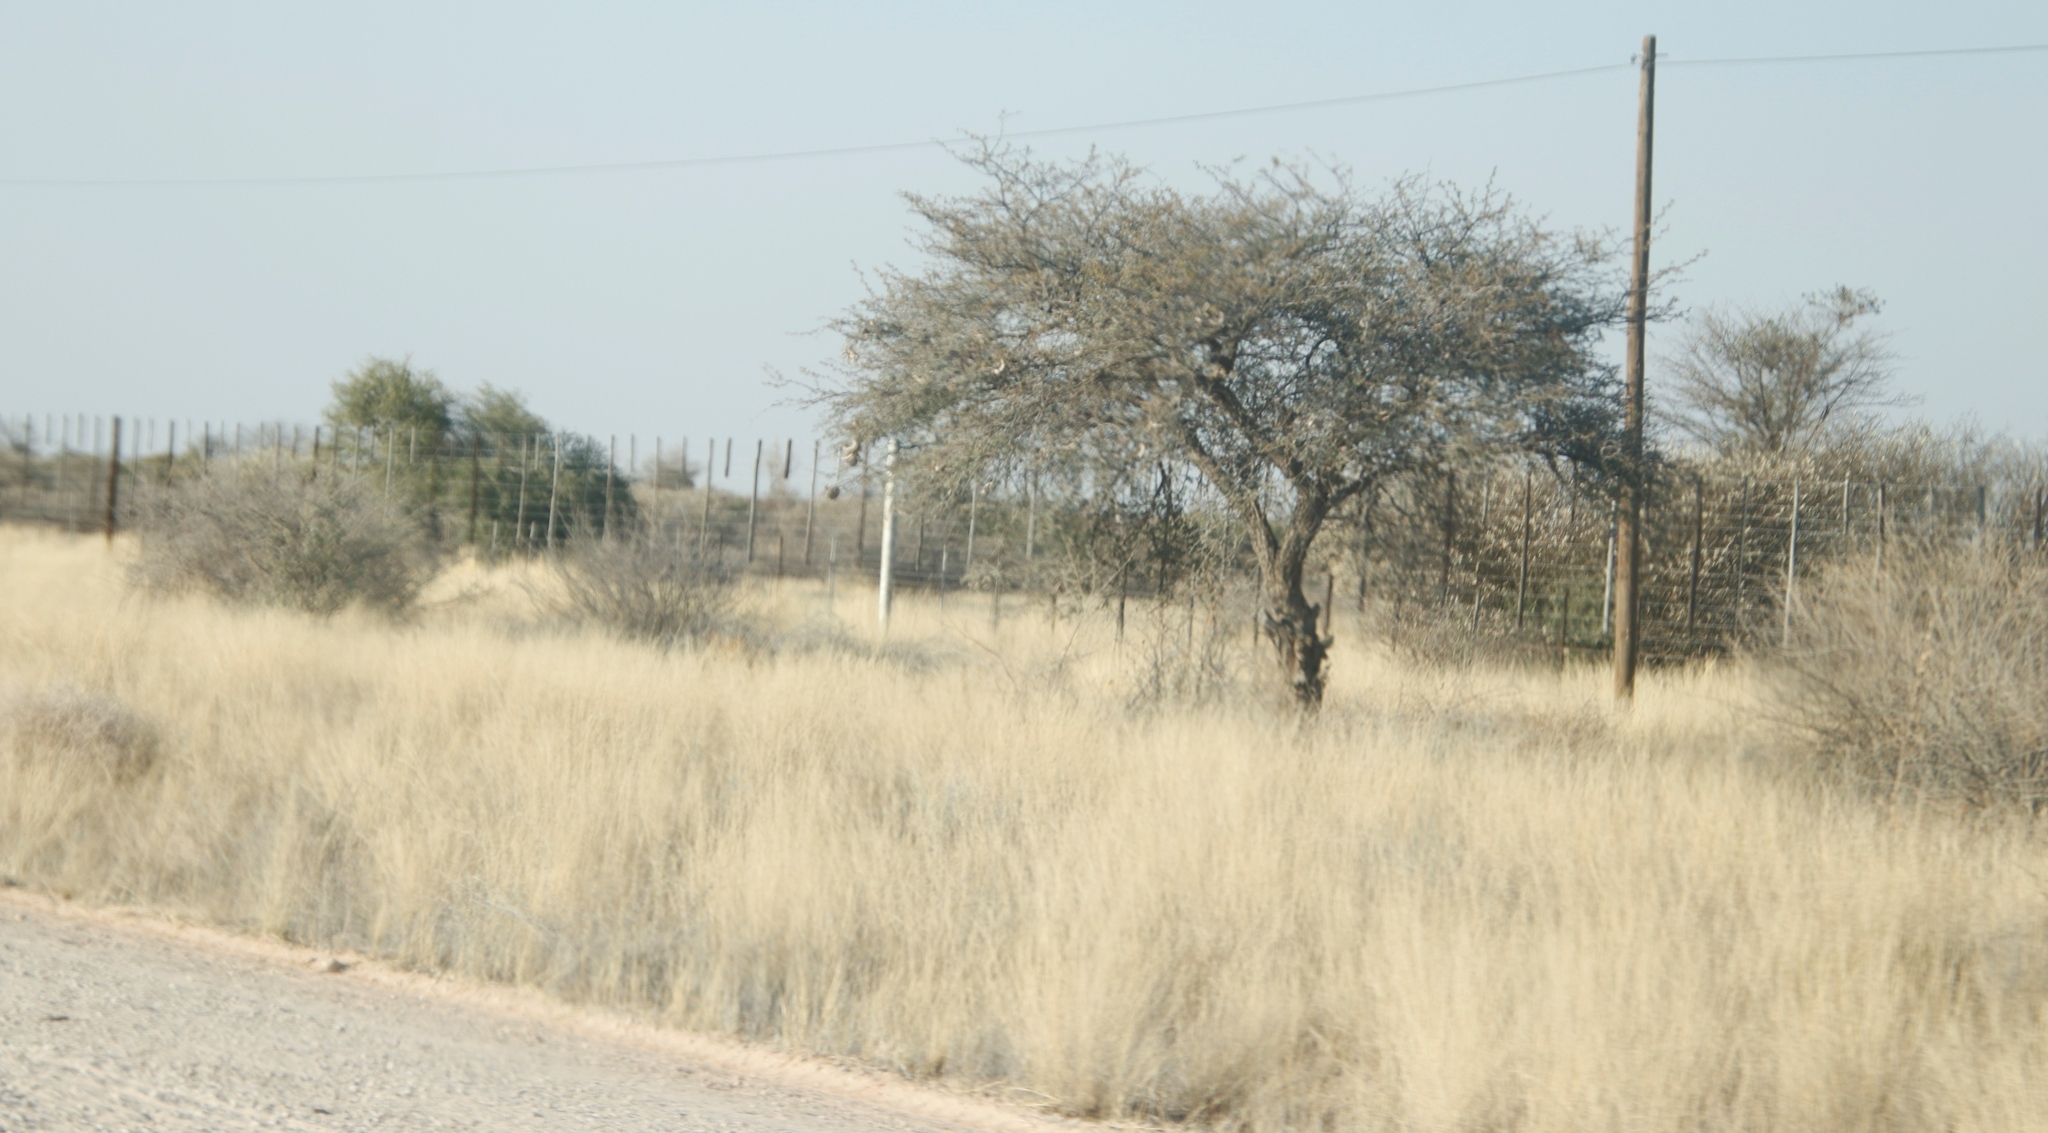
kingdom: Plantae
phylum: Tracheophyta
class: Magnoliopsida
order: Fabales
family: Fabaceae
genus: Vachellia
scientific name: Vachellia erioloba
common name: Camel thorn
